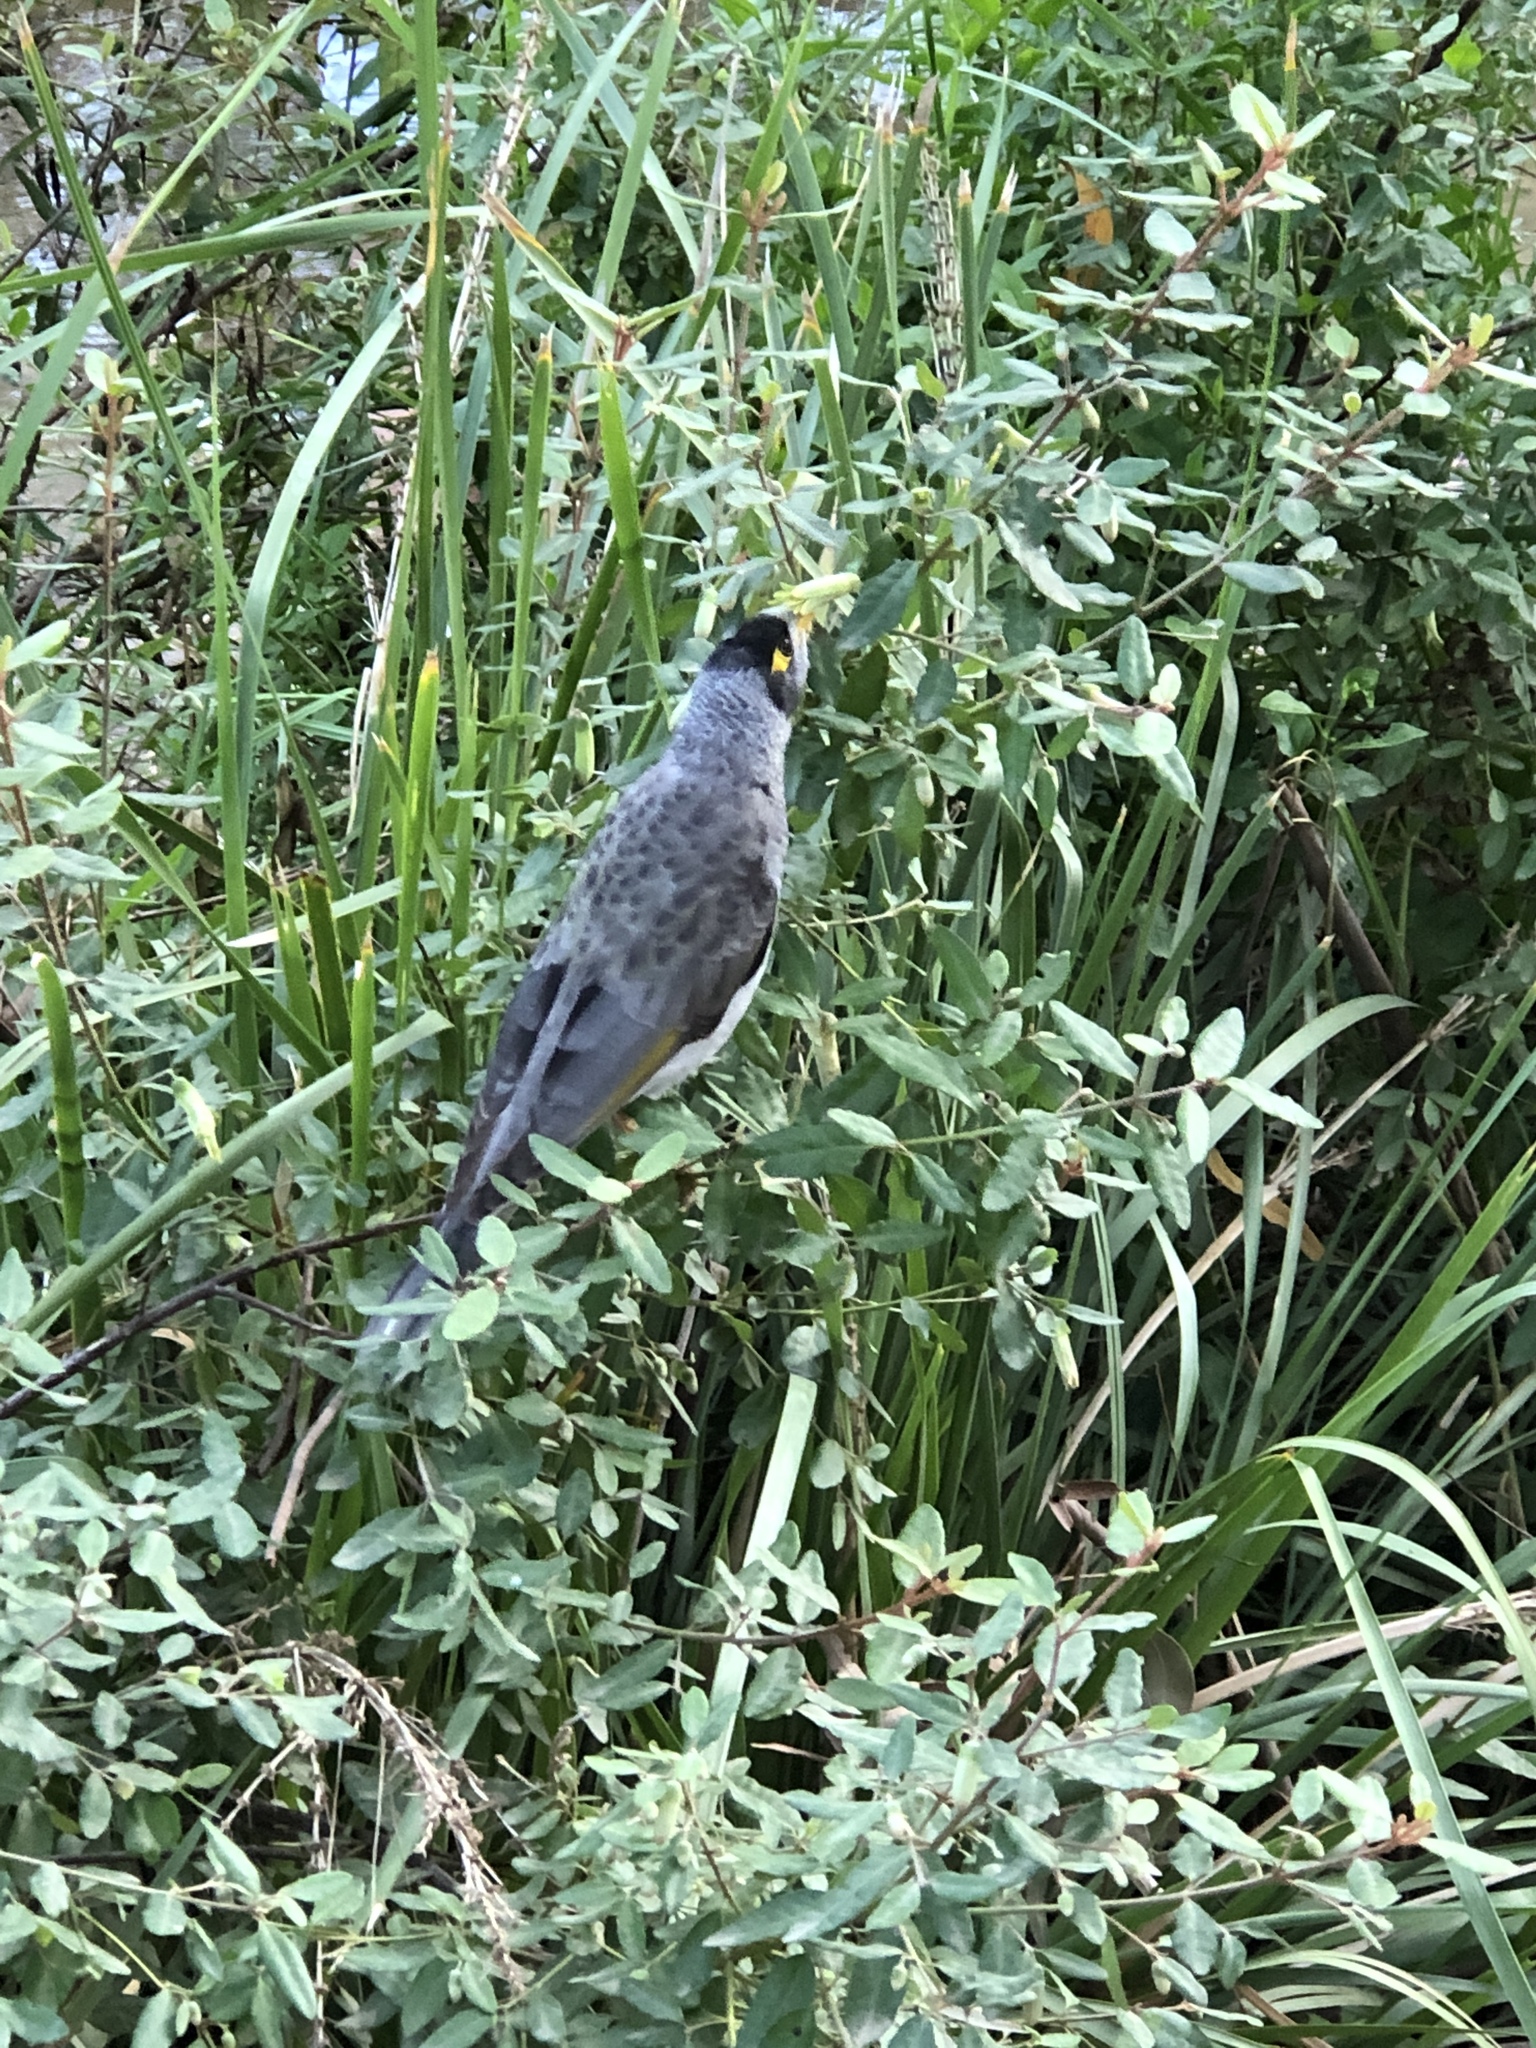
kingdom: Animalia
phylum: Chordata
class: Aves
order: Passeriformes
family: Meliphagidae
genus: Manorina
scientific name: Manorina melanocephala
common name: Noisy miner
